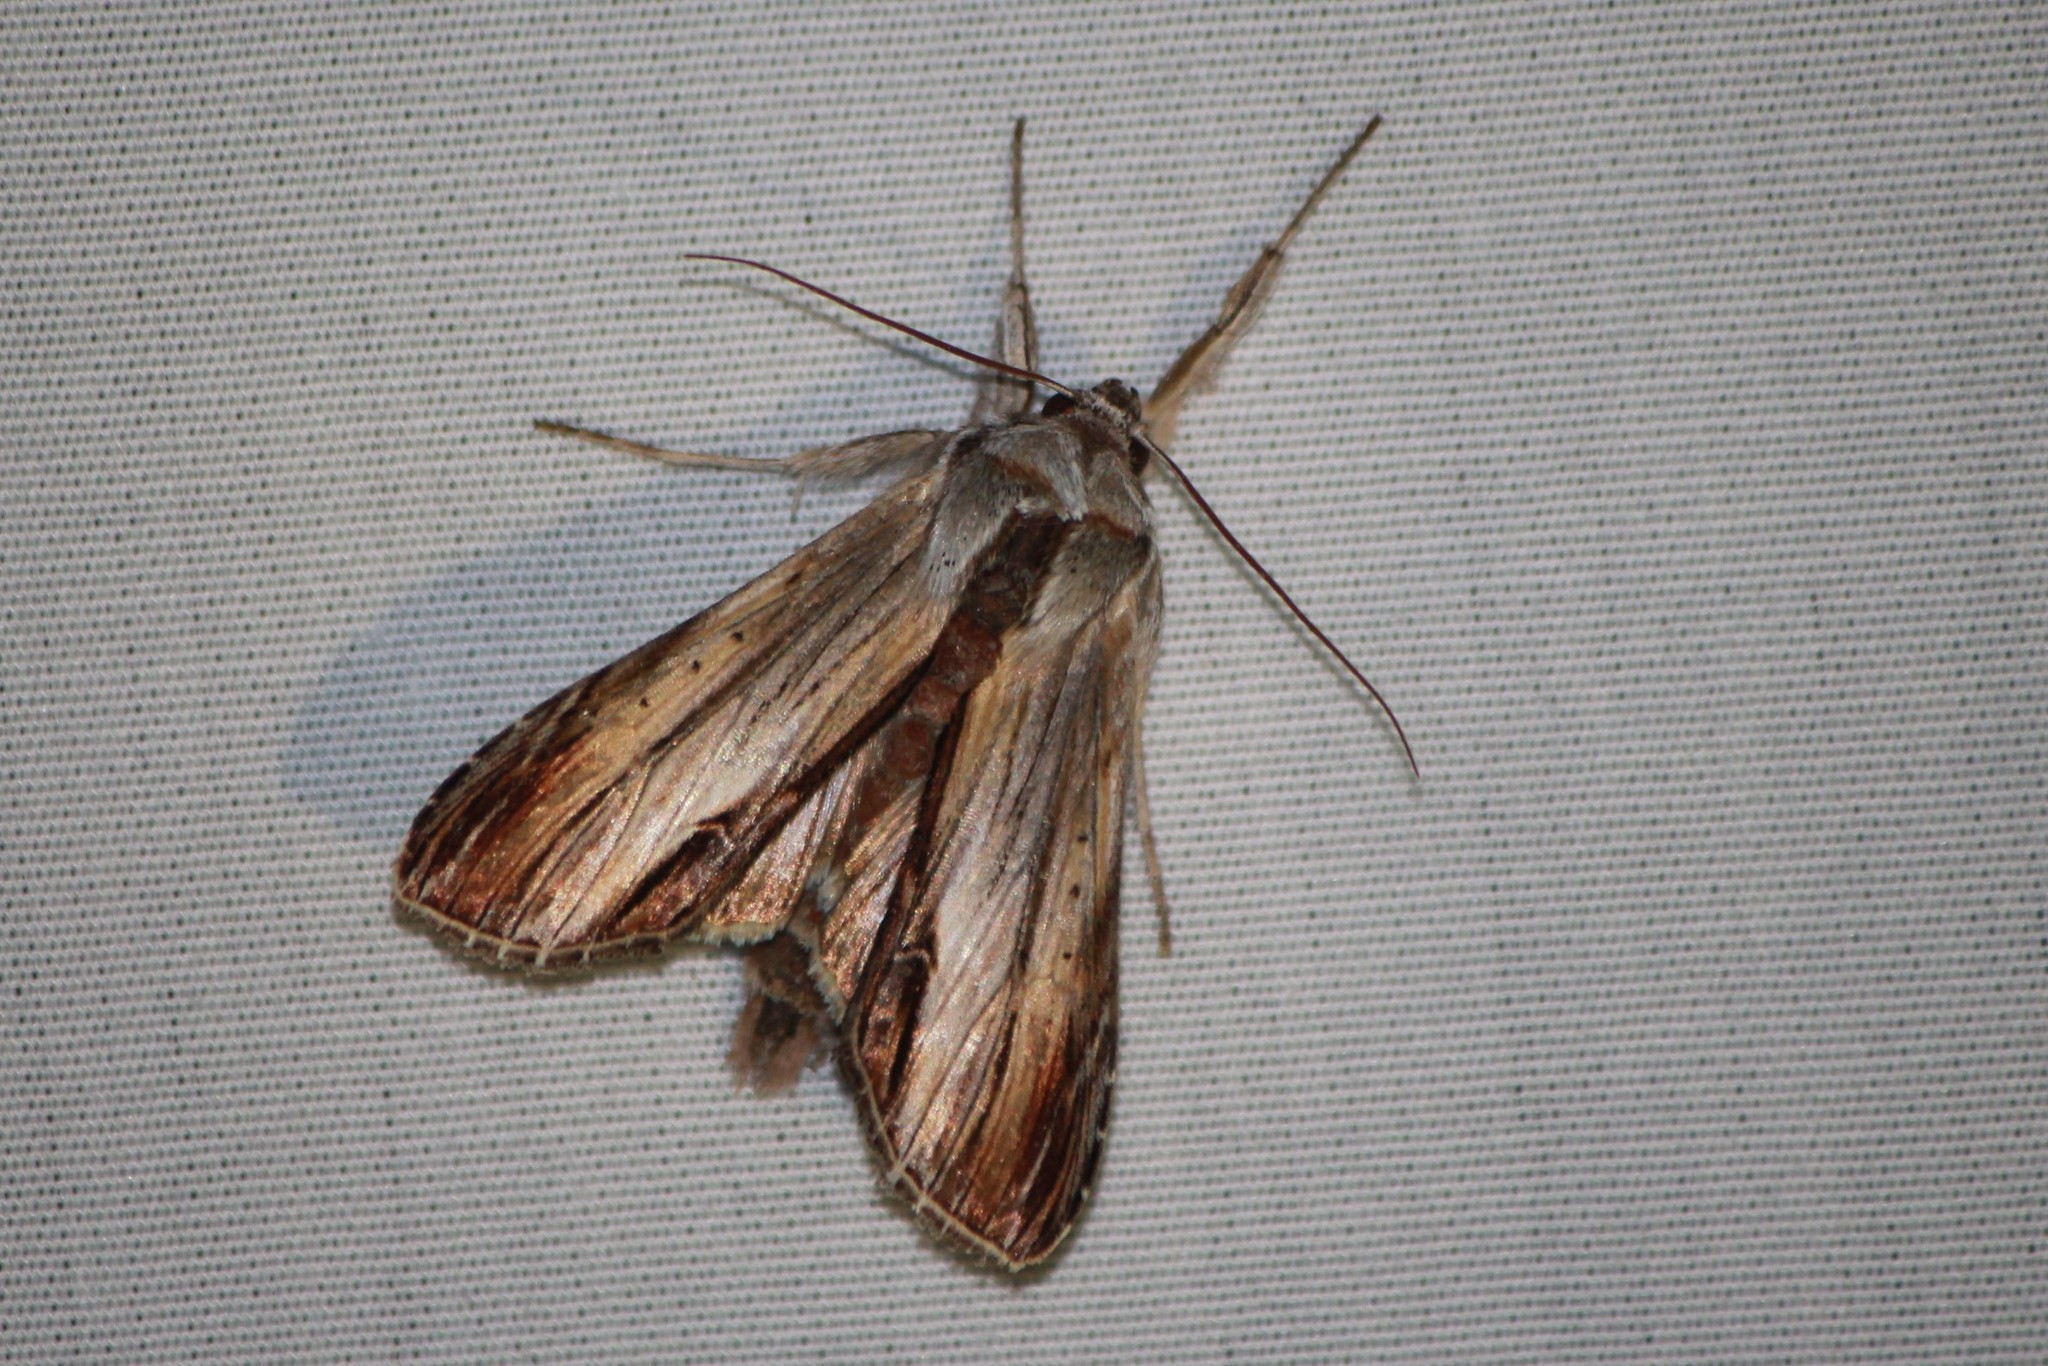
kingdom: Animalia
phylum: Arthropoda
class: Insecta
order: Lepidoptera
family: Noctuidae
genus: Cucullia
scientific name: Cucullia convexipennis
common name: Brown-hooded owlet
